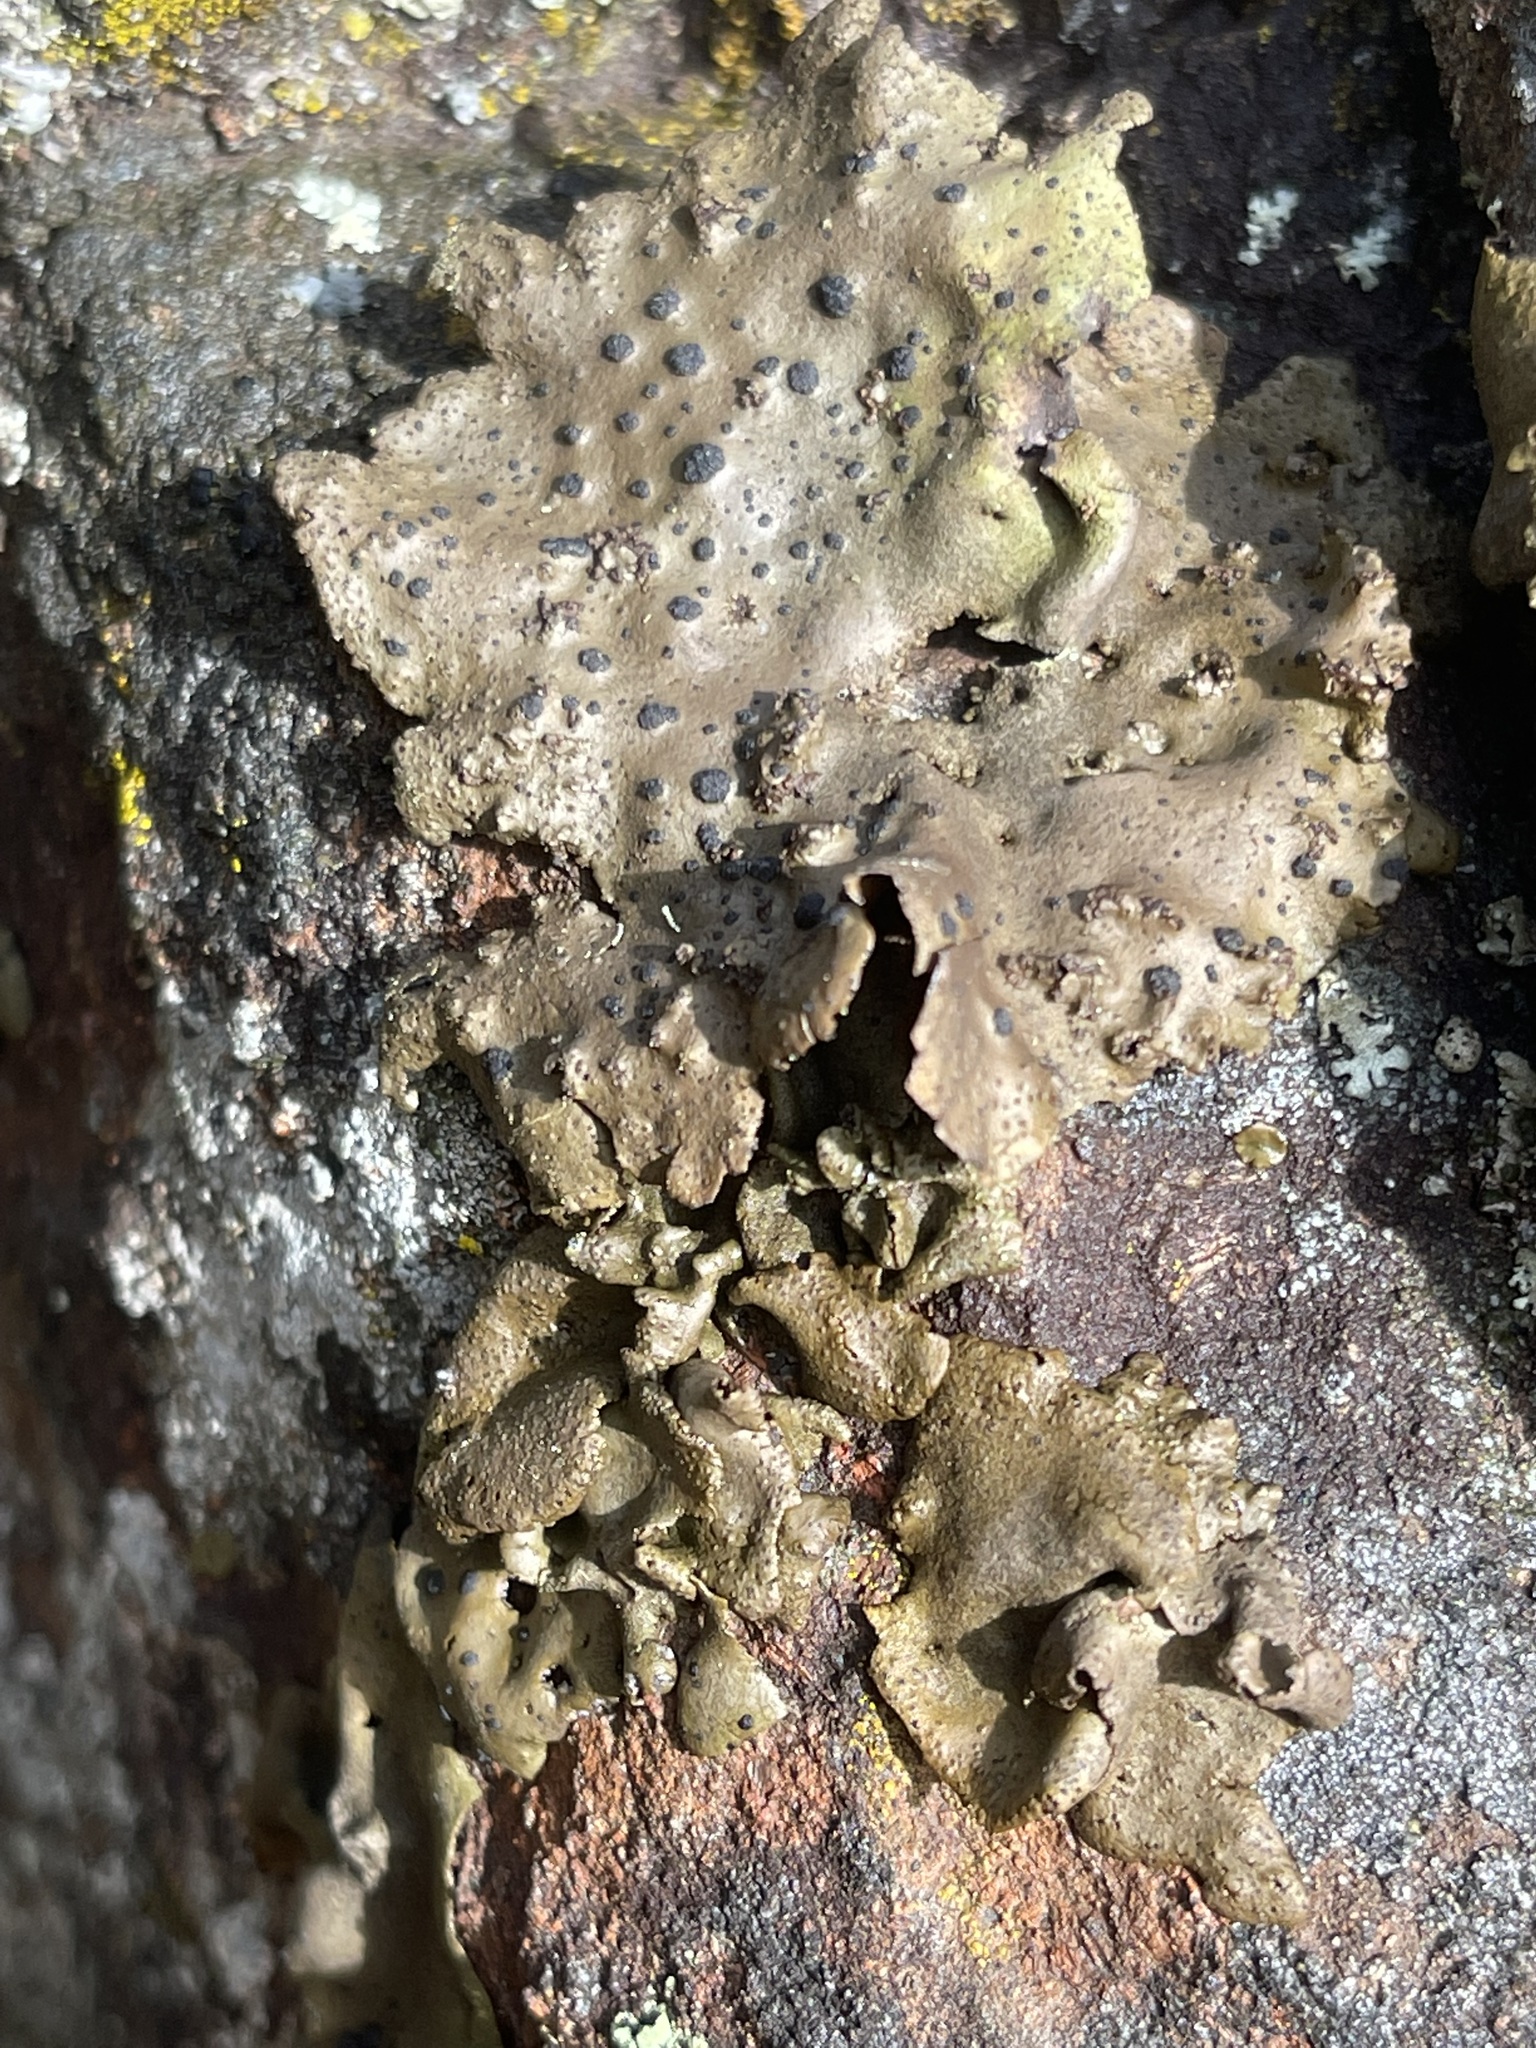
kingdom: Fungi
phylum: Ascomycota
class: Lecanoromycetes
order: Umbilicariales
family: Umbilicariaceae
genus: Umbilicaria
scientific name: Umbilicaria phaea
